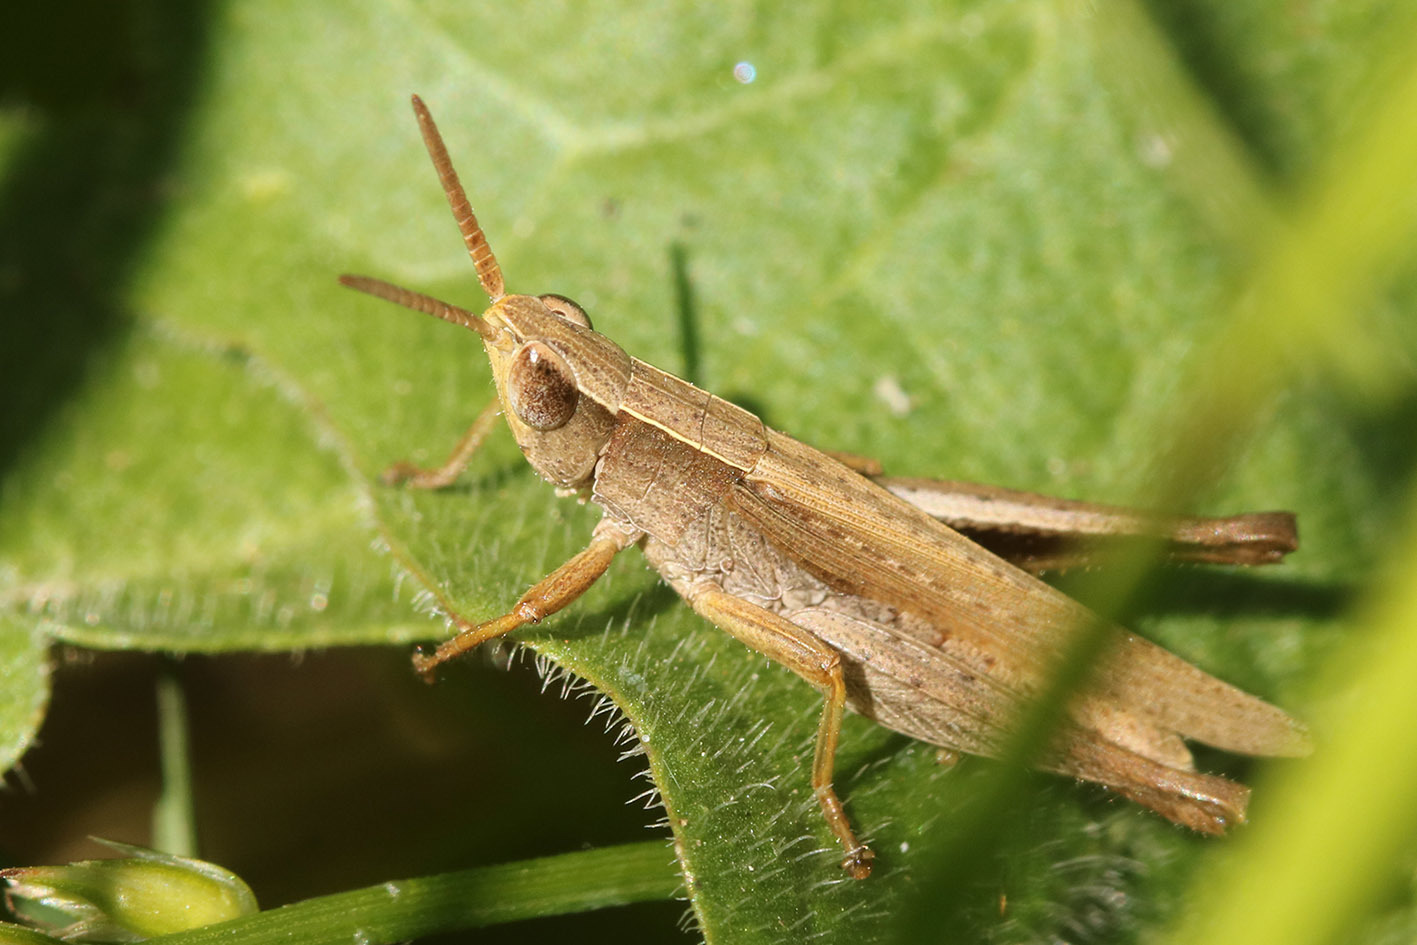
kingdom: Animalia
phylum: Arthropoda
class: Insecta
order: Orthoptera
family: Acrididae
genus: Laplatacris
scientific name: Laplatacris dispar
